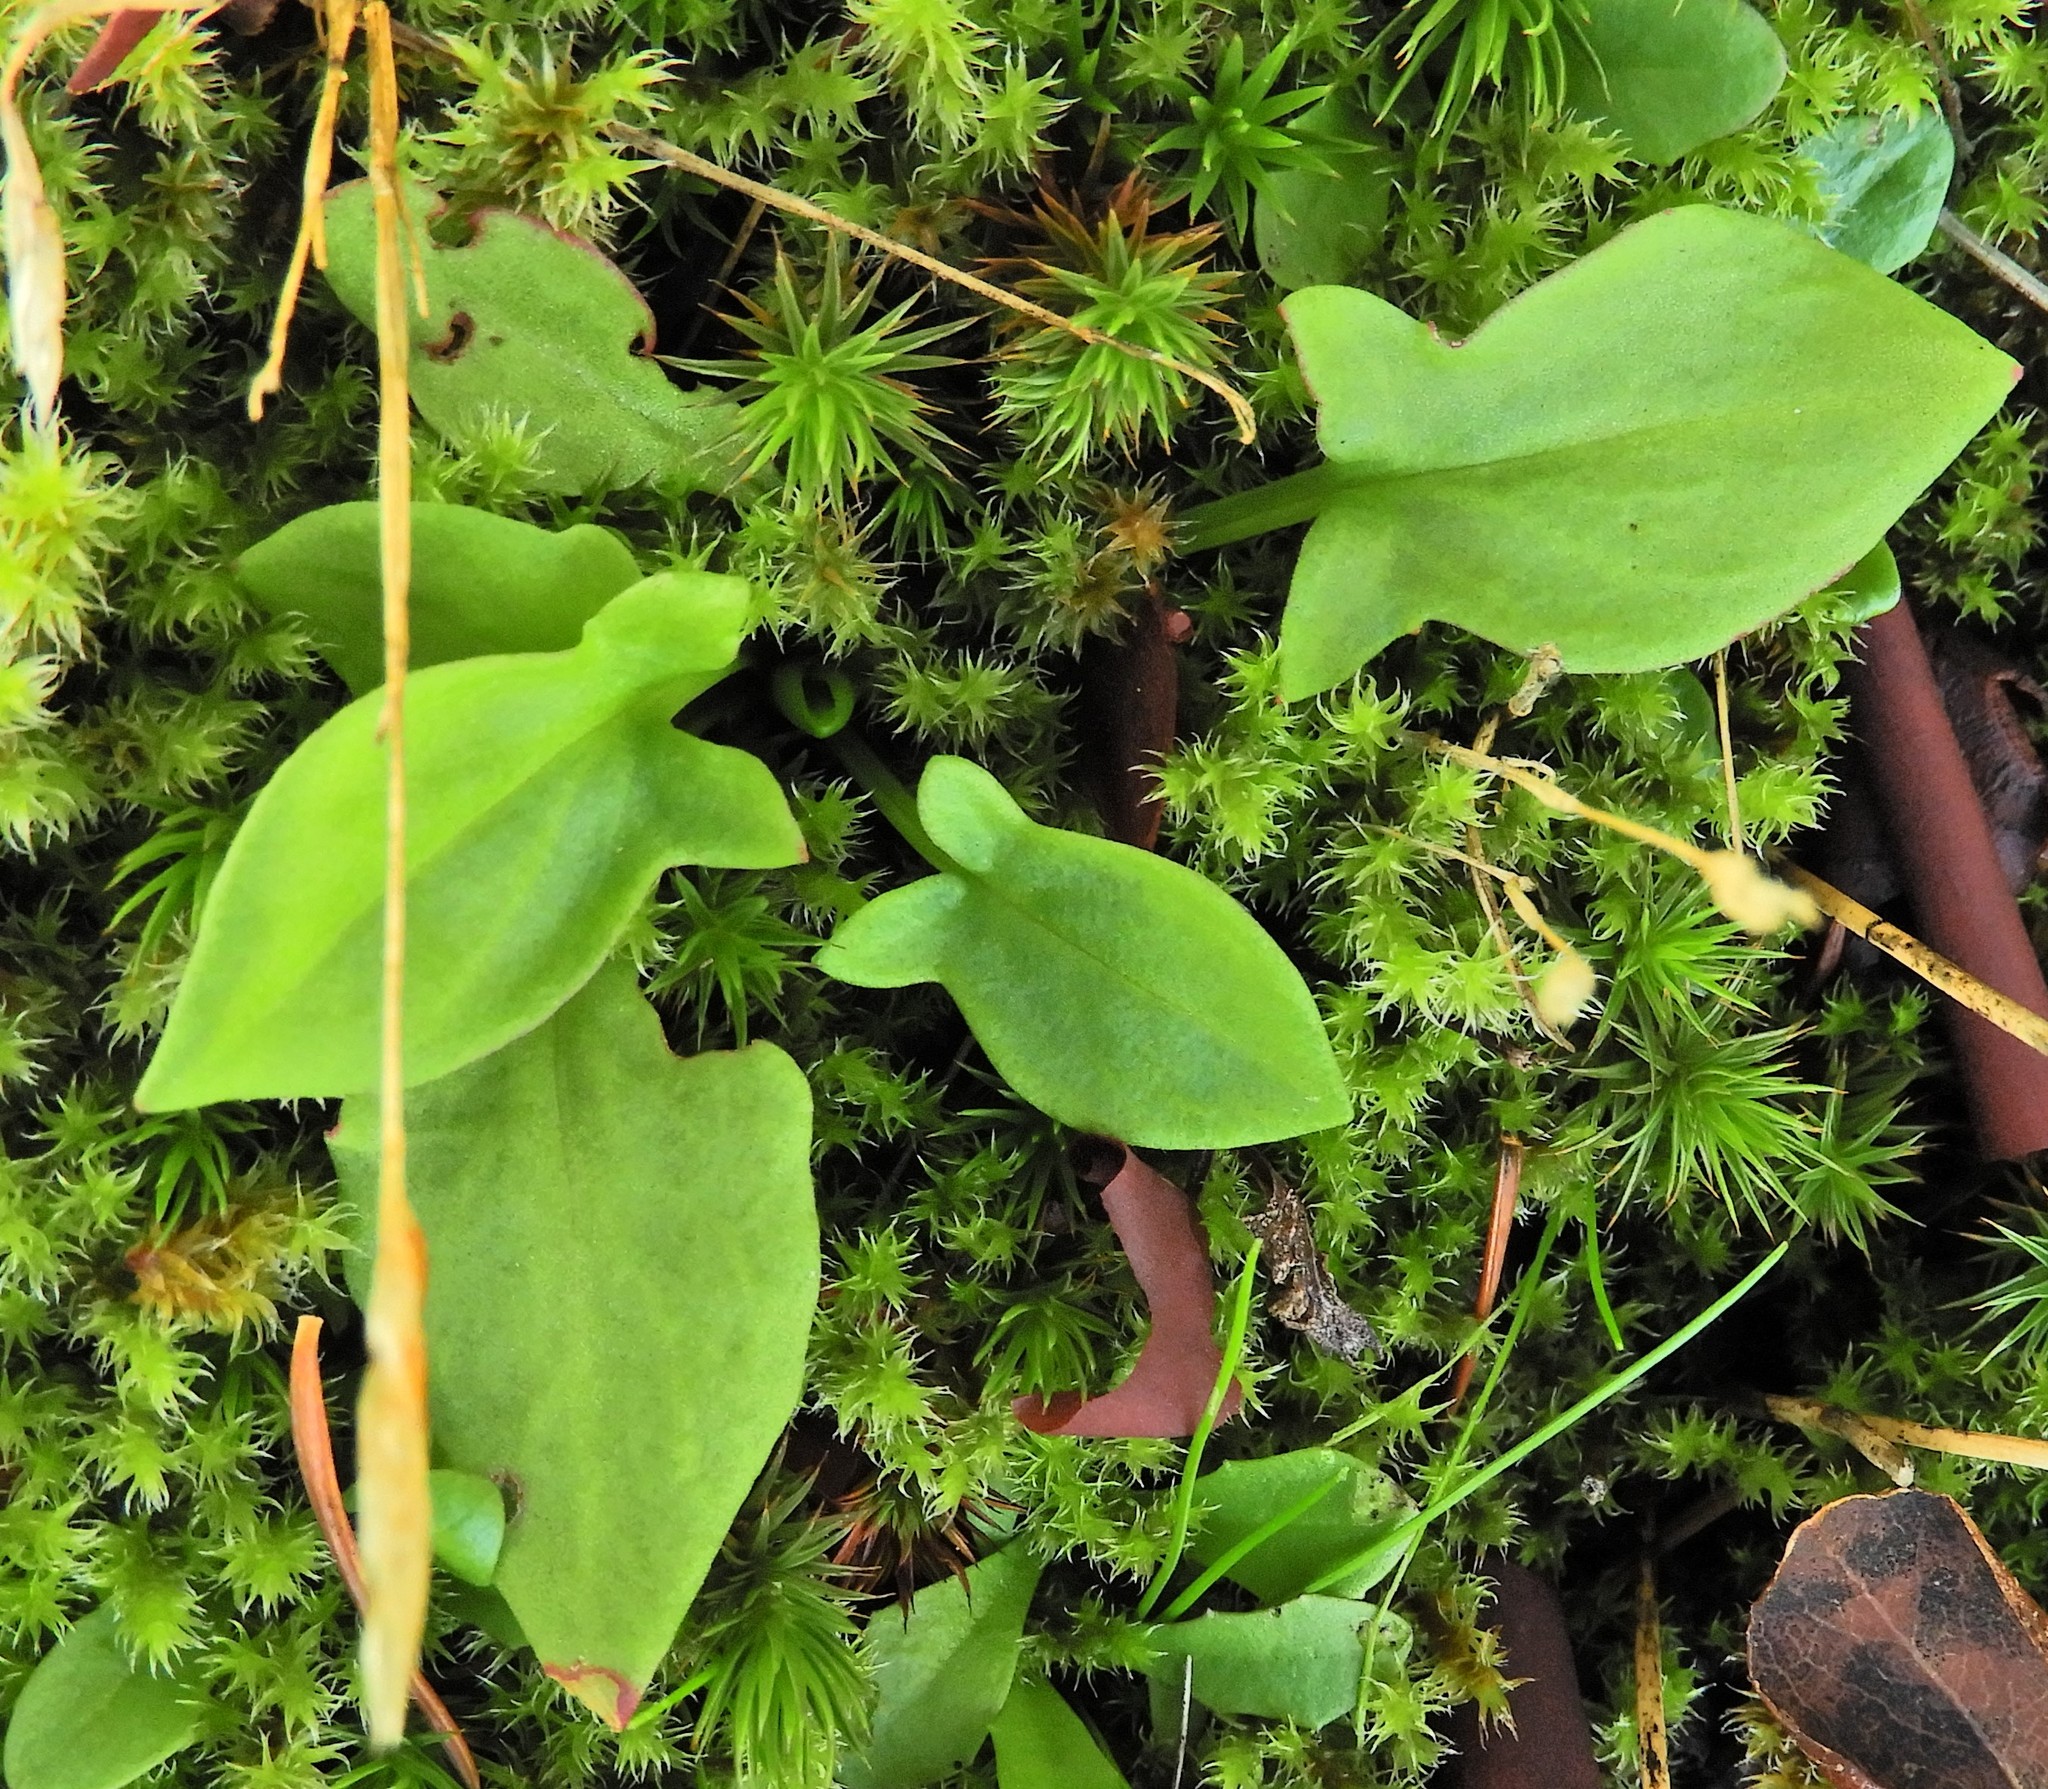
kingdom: Plantae
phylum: Tracheophyta
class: Magnoliopsida
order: Caryophyllales
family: Polygonaceae
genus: Rumex
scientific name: Rumex acetosella
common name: Common sheep sorrel
